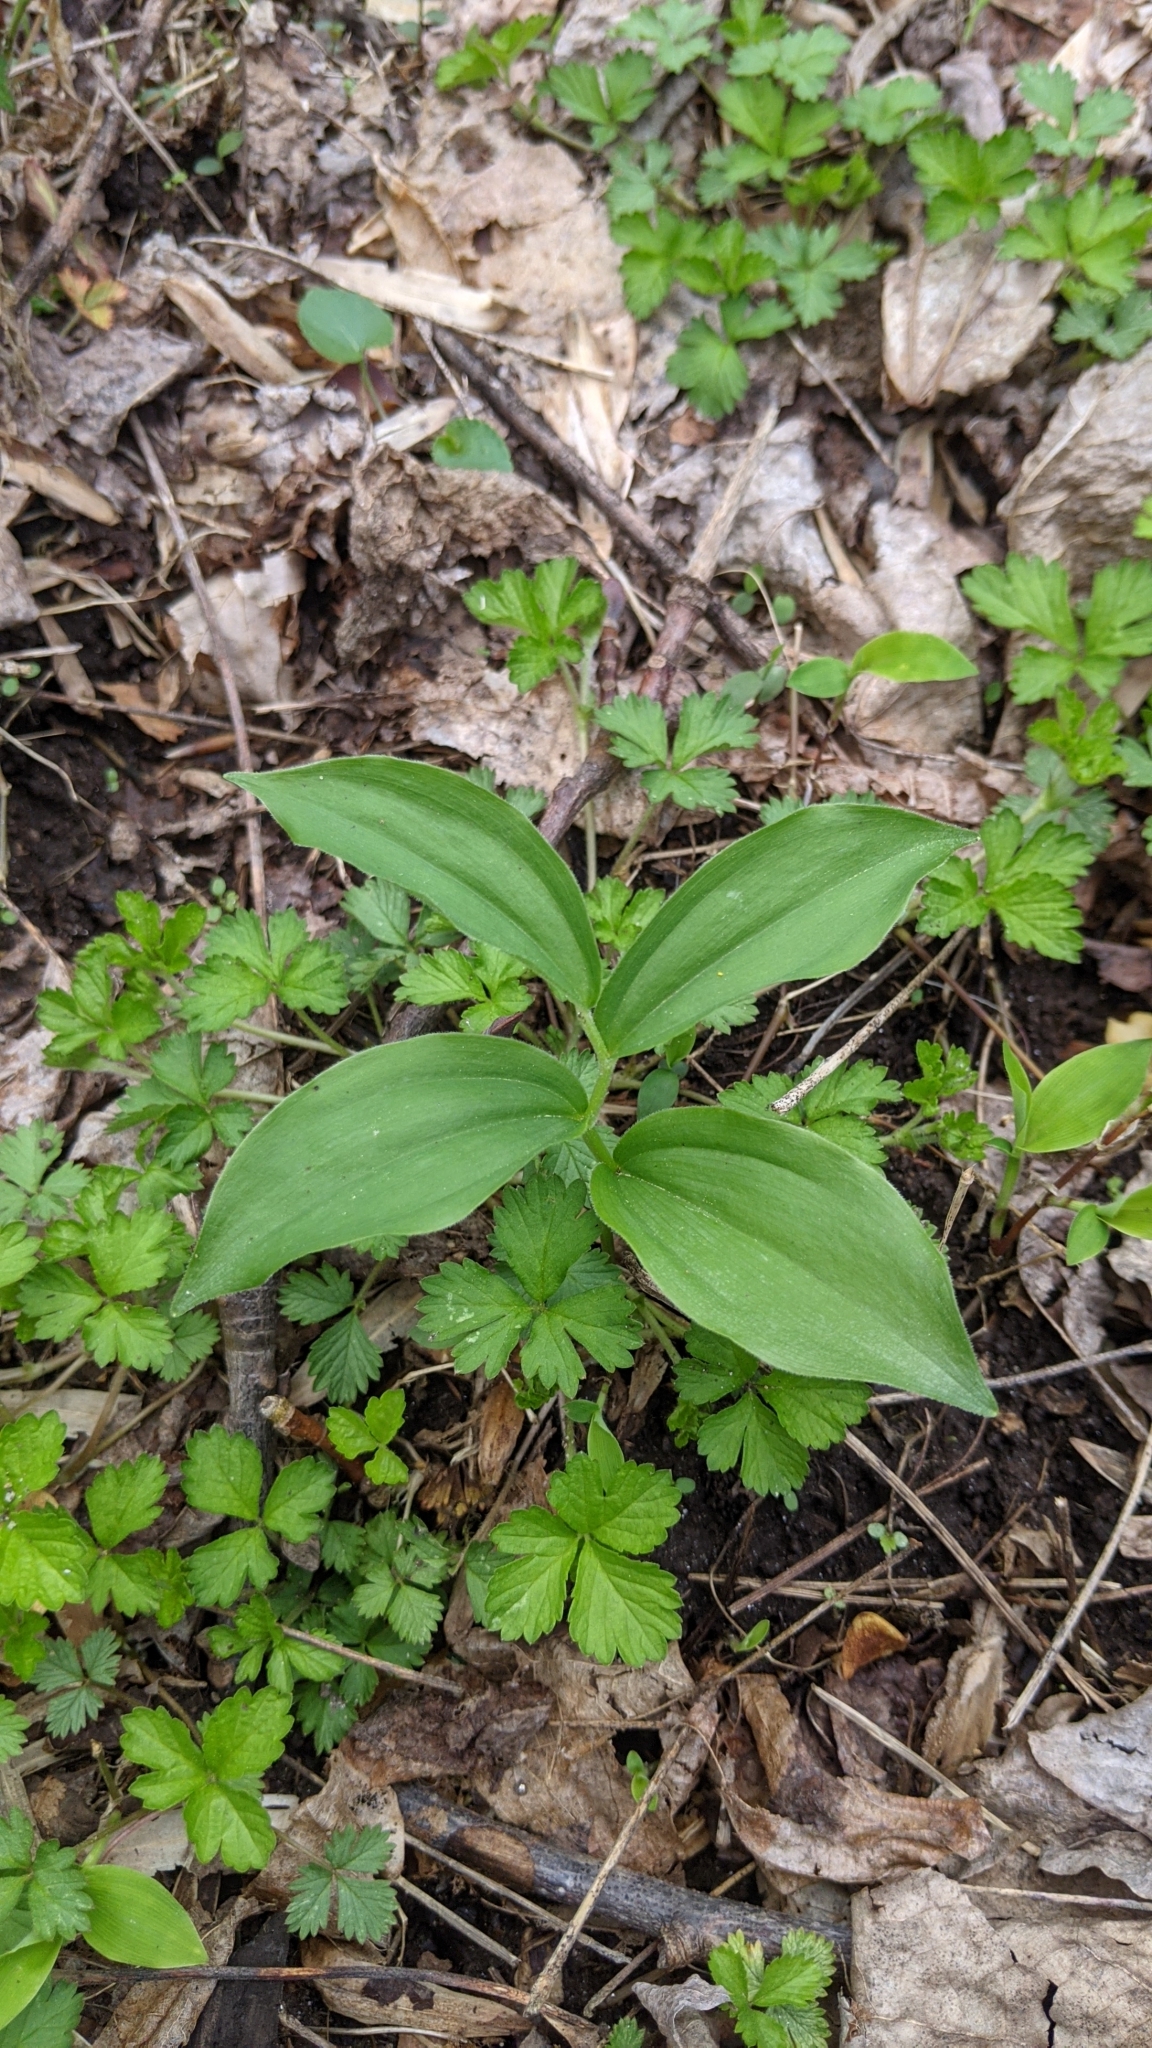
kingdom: Plantae
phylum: Tracheophyta
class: Liliopsida
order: Asparagales
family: Asparagaceae
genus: Maianthemum
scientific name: Maianthemum racemosum
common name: False spikenard
